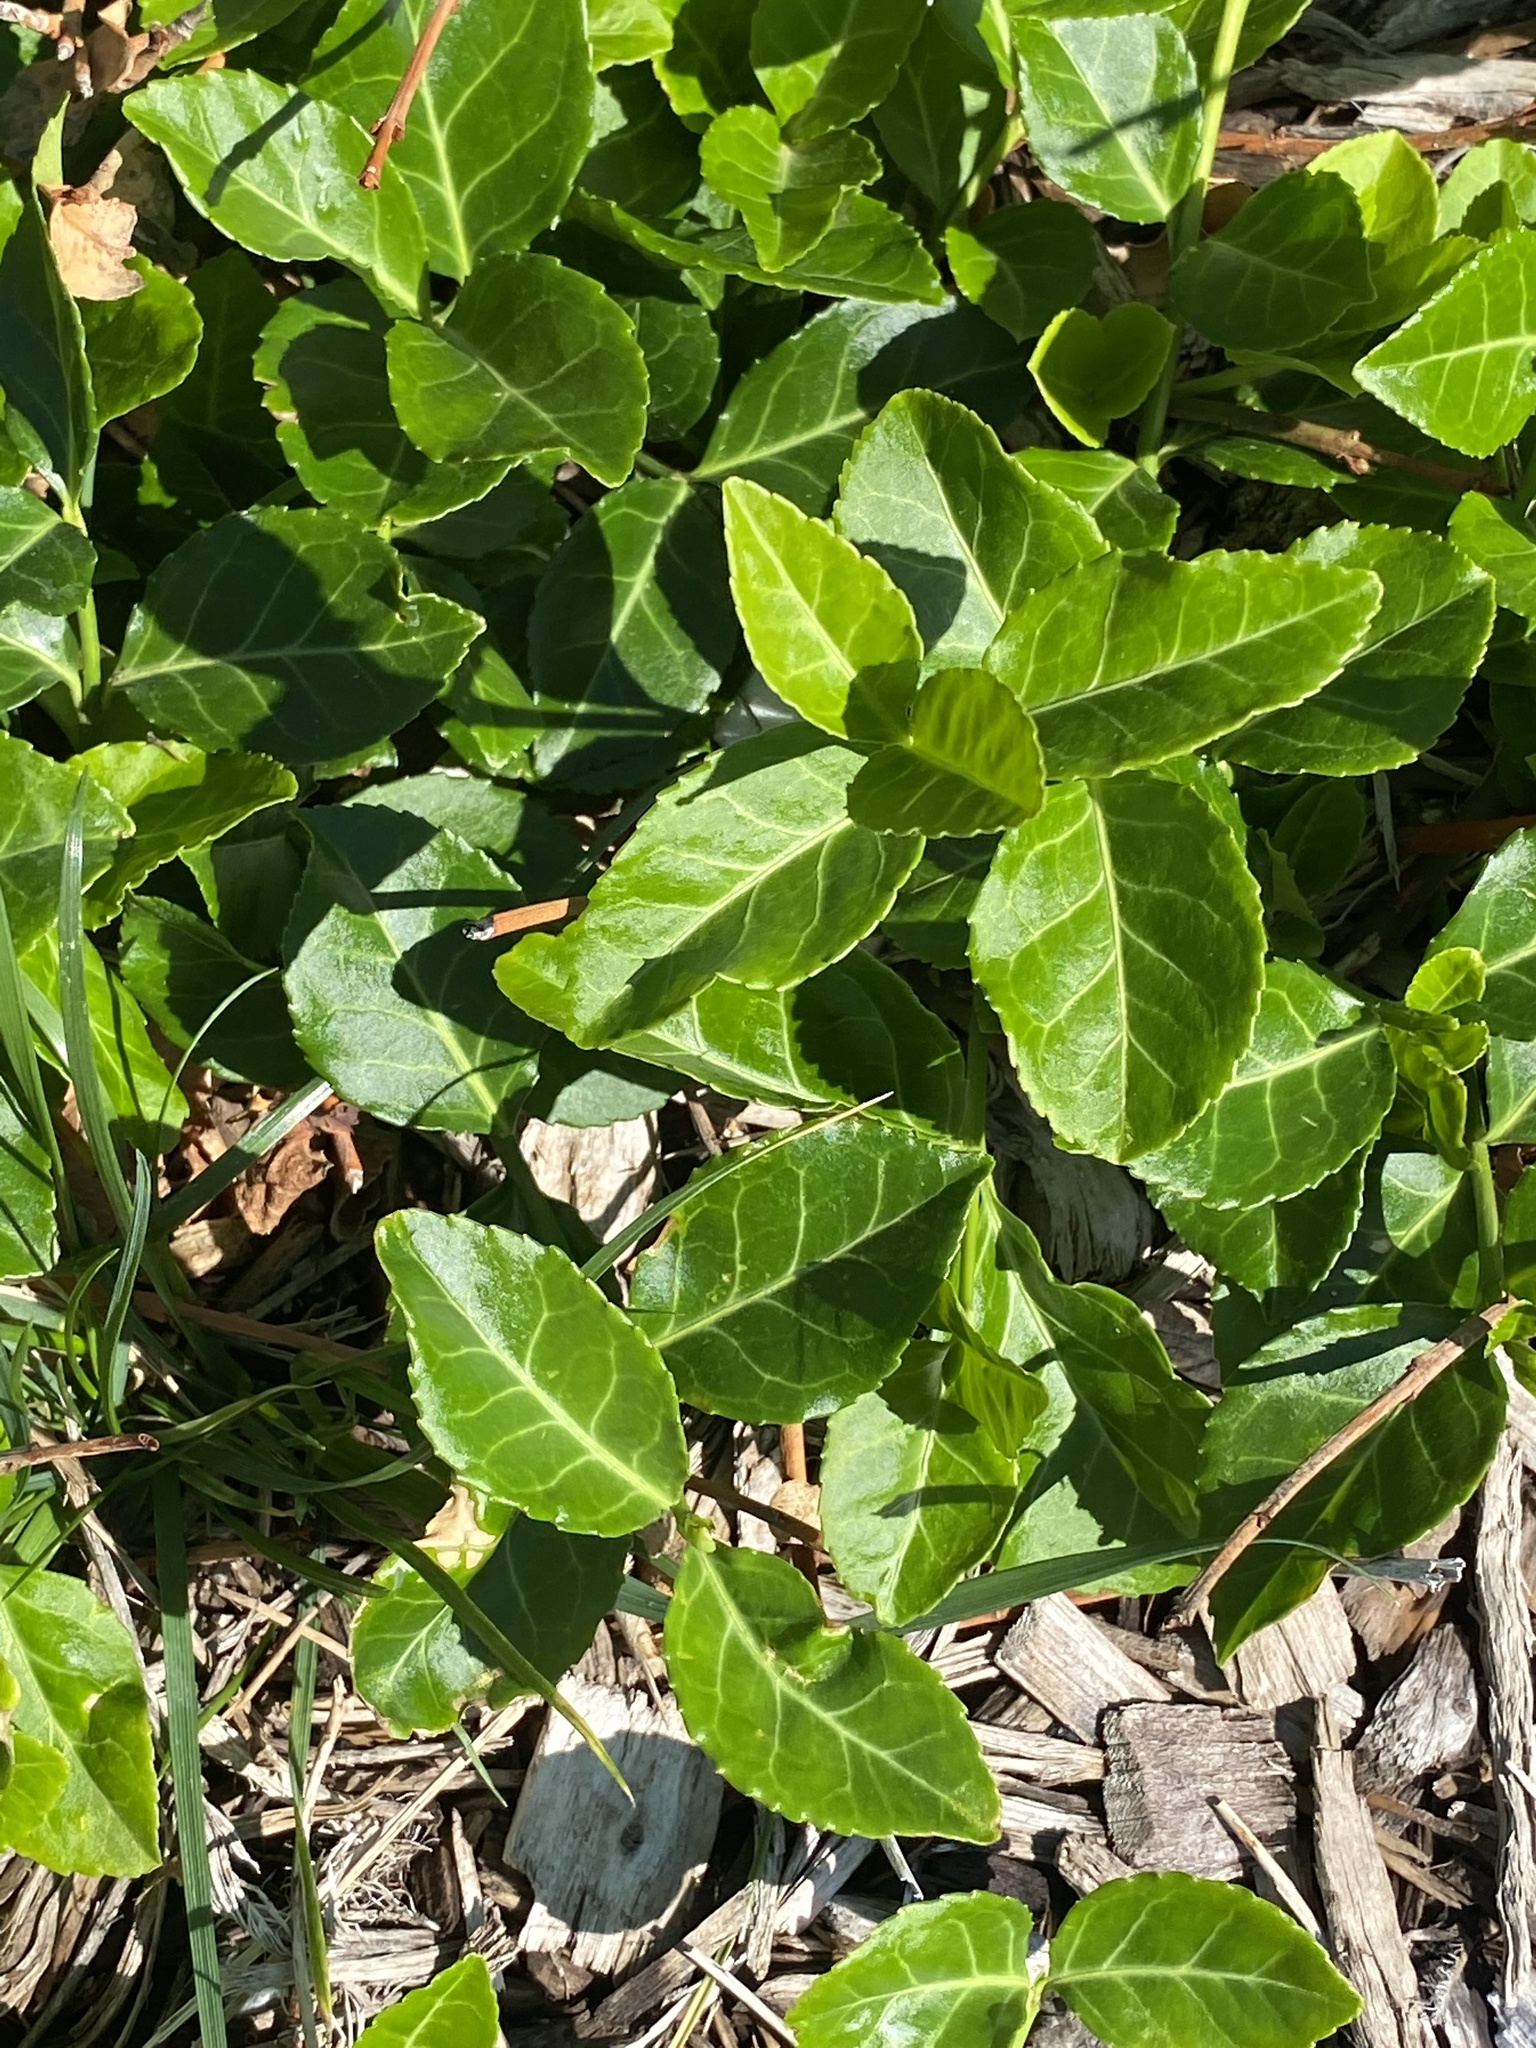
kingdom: Plantae
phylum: Tracheophyta
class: Magnoliopsida
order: Celastrales
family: Celastraceae
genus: Euonymus
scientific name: Euonymus fortunei
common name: Climbing euonymus
